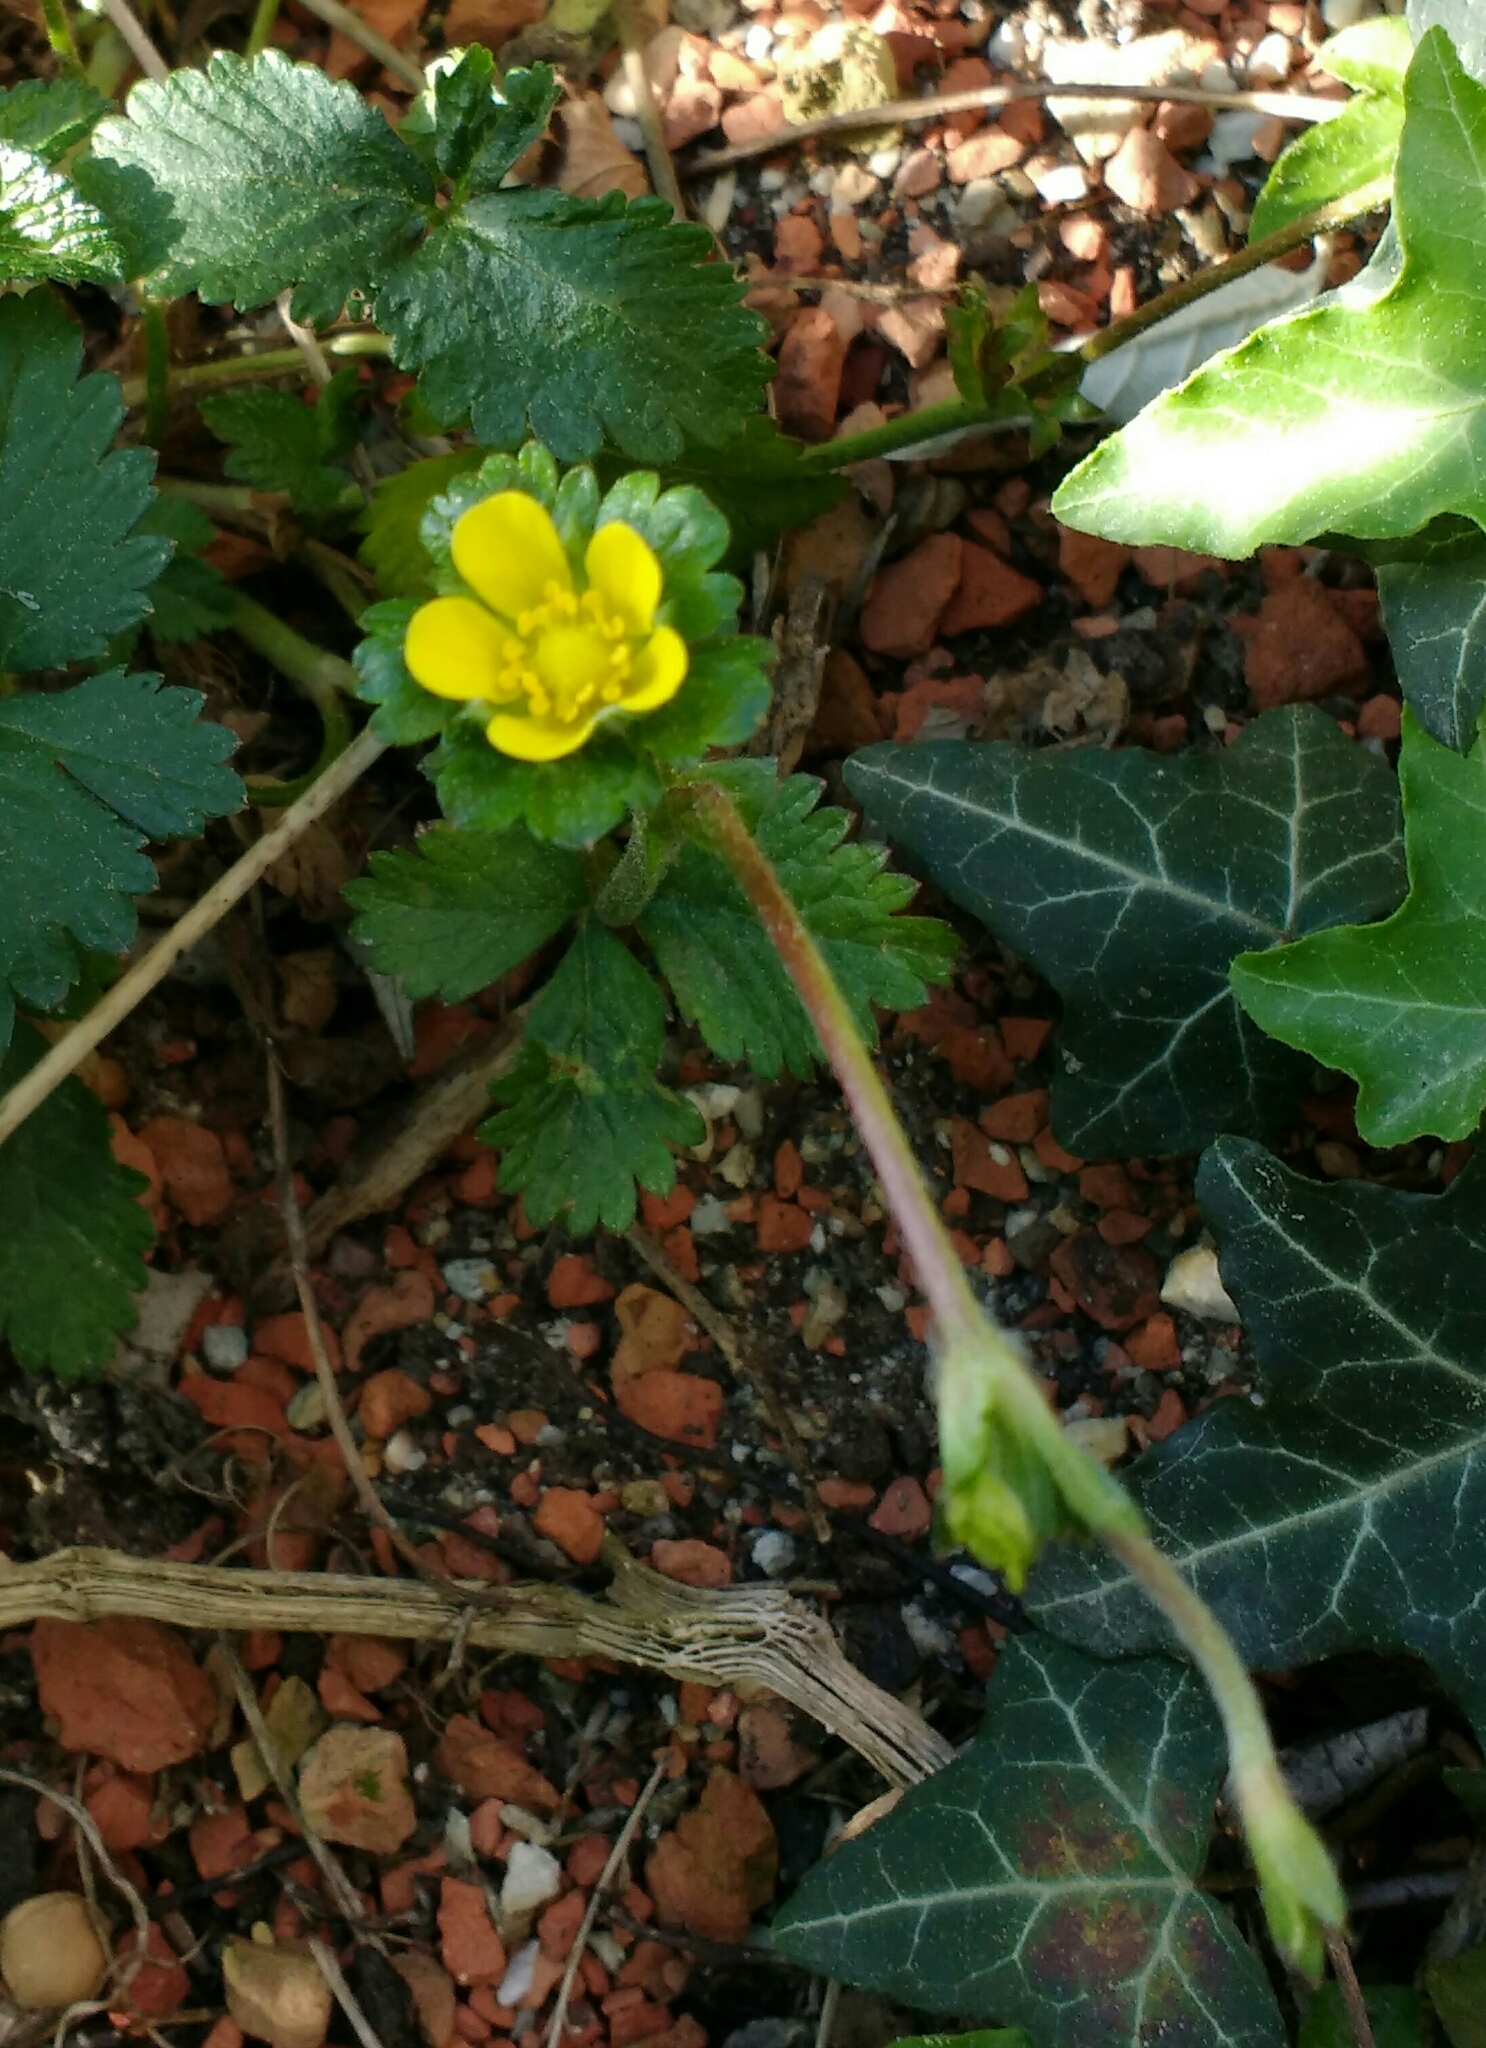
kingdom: Plantae
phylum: Tracheophyta
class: Magnoliopsida
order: Rosales
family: Rosaceae
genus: Potentilla
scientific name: Potentilla indica
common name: Yellow-flowered strawberry
